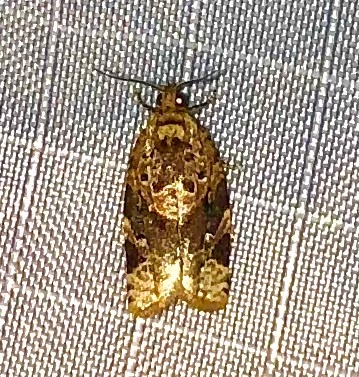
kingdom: Animalia
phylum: Arthropoda
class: Insecta
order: Lepidoptera
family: Tortricidae
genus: Argyrotaenia
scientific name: Argyrotaenia velutinana
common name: Red-banded leafroller moth
